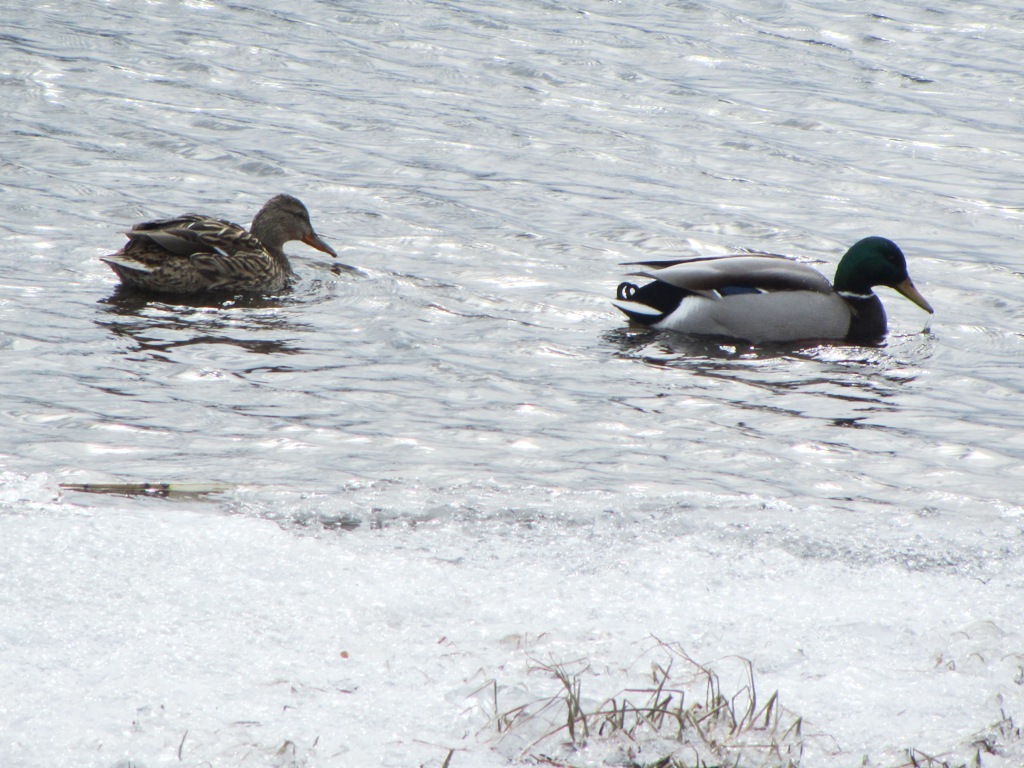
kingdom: Animalia
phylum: Chordata
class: Aves
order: Anseriformes
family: Anatidae
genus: Anas
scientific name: Anas platyrhynchos
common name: Mallard
